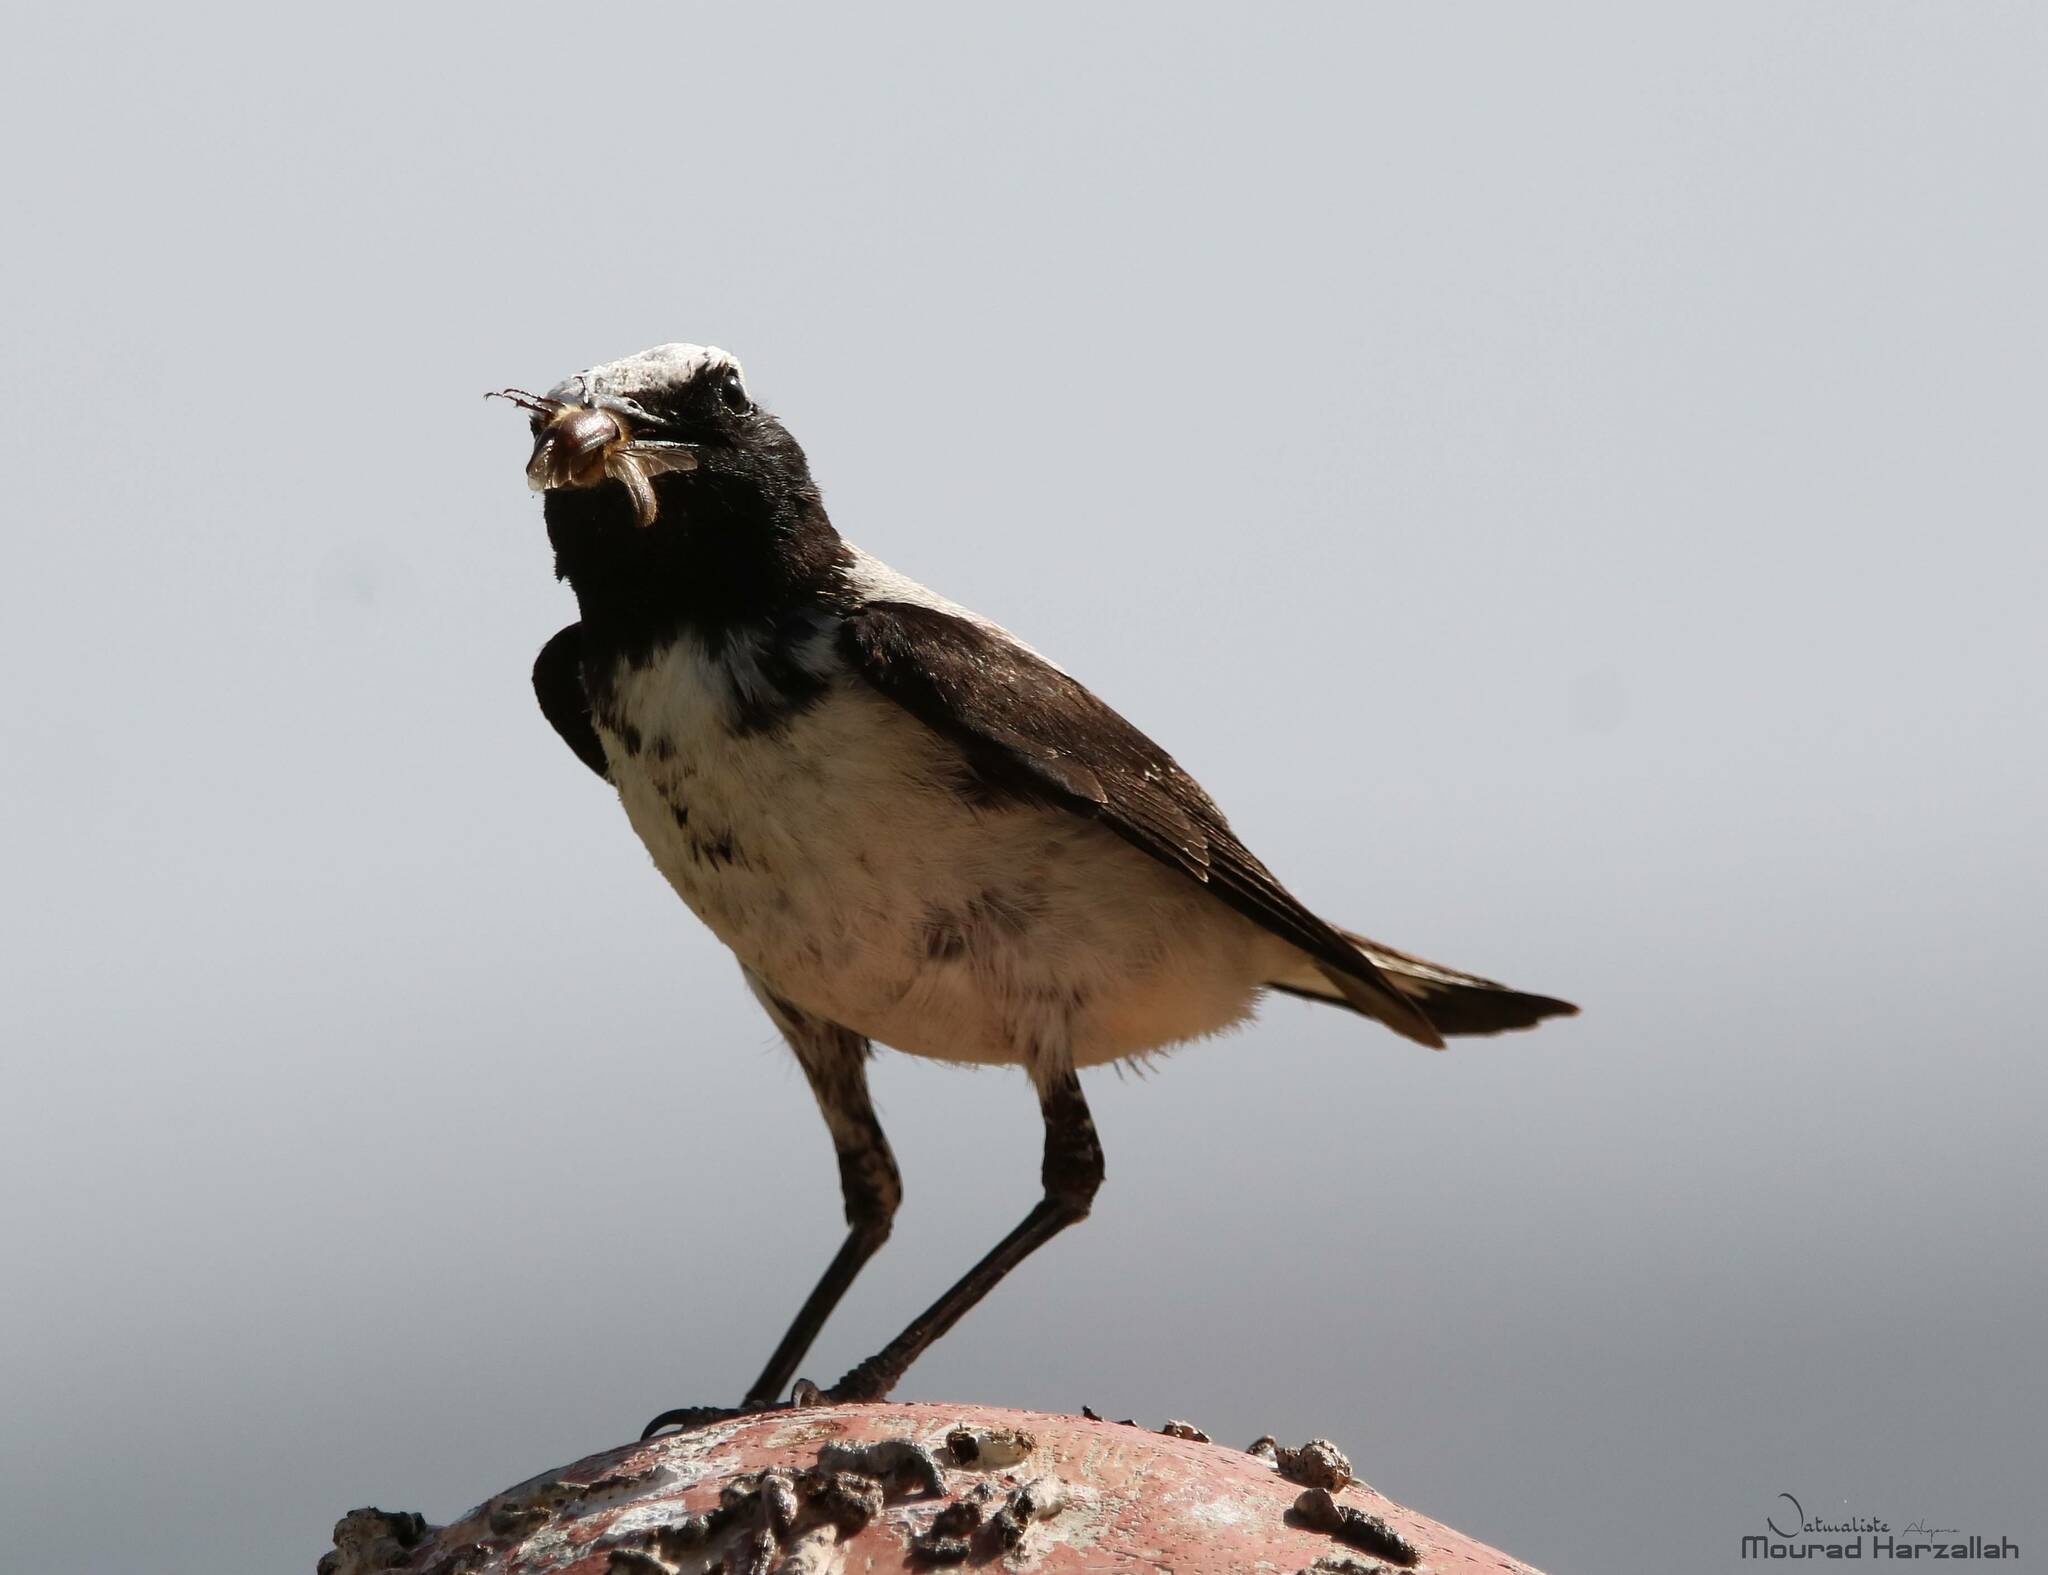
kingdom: Animalia
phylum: Chordata
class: Aves
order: Passeriformes
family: Muscicapidae
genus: Oenanthe
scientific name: Oenanthe oenanthe
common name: Northern wheatear
